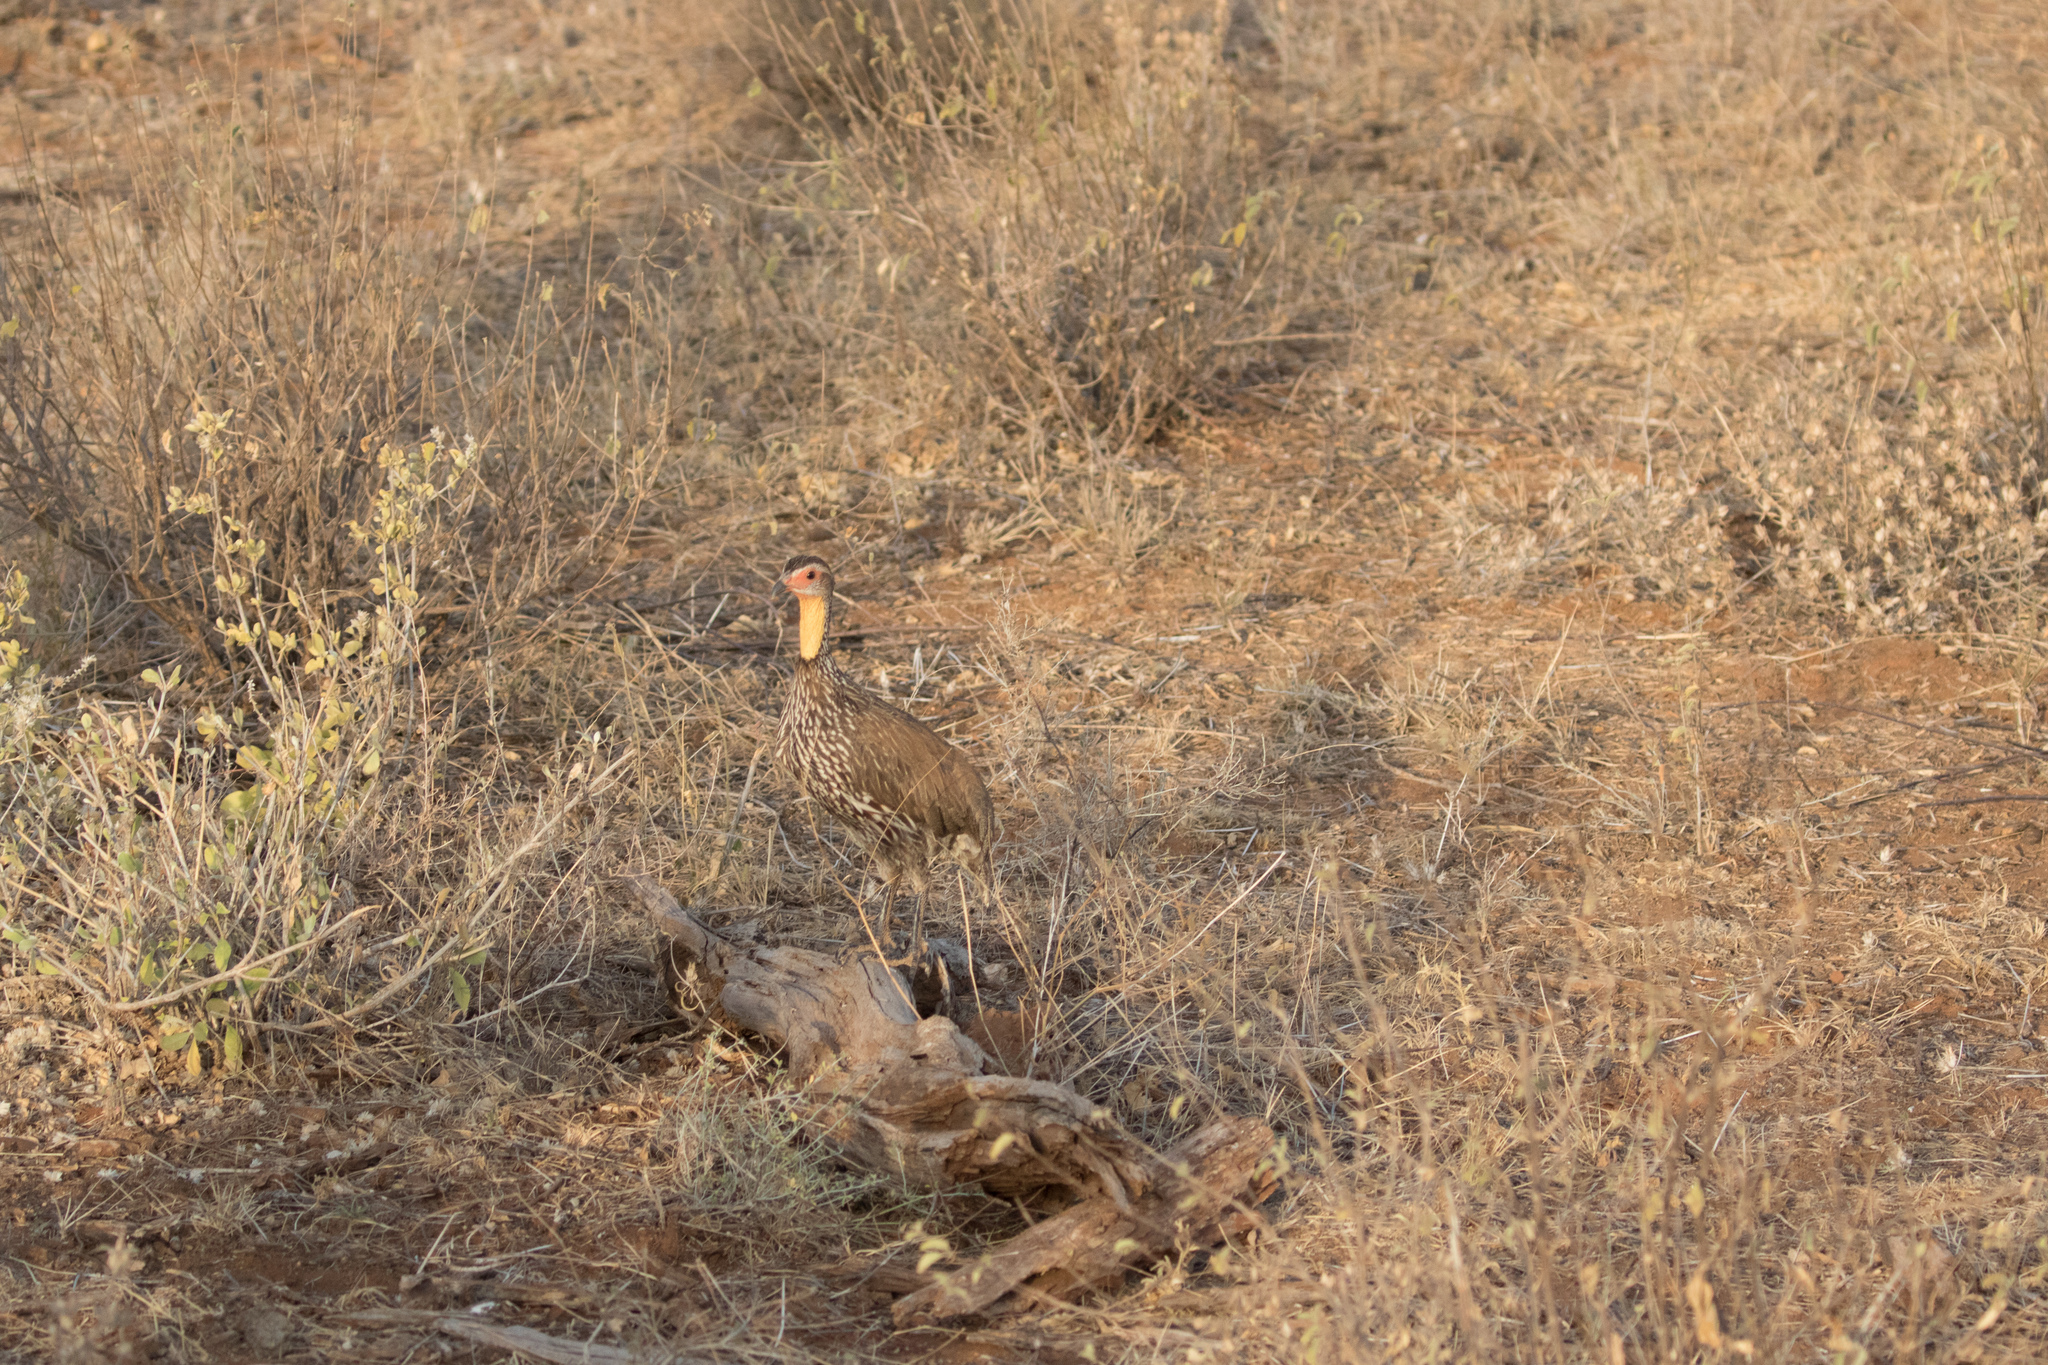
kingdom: Animalia
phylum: Chordata
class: Aves
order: Galliformes
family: Phasianidae
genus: Pternistis
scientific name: Pternistis leucoscepus
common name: Yellow-necked spurfowl
